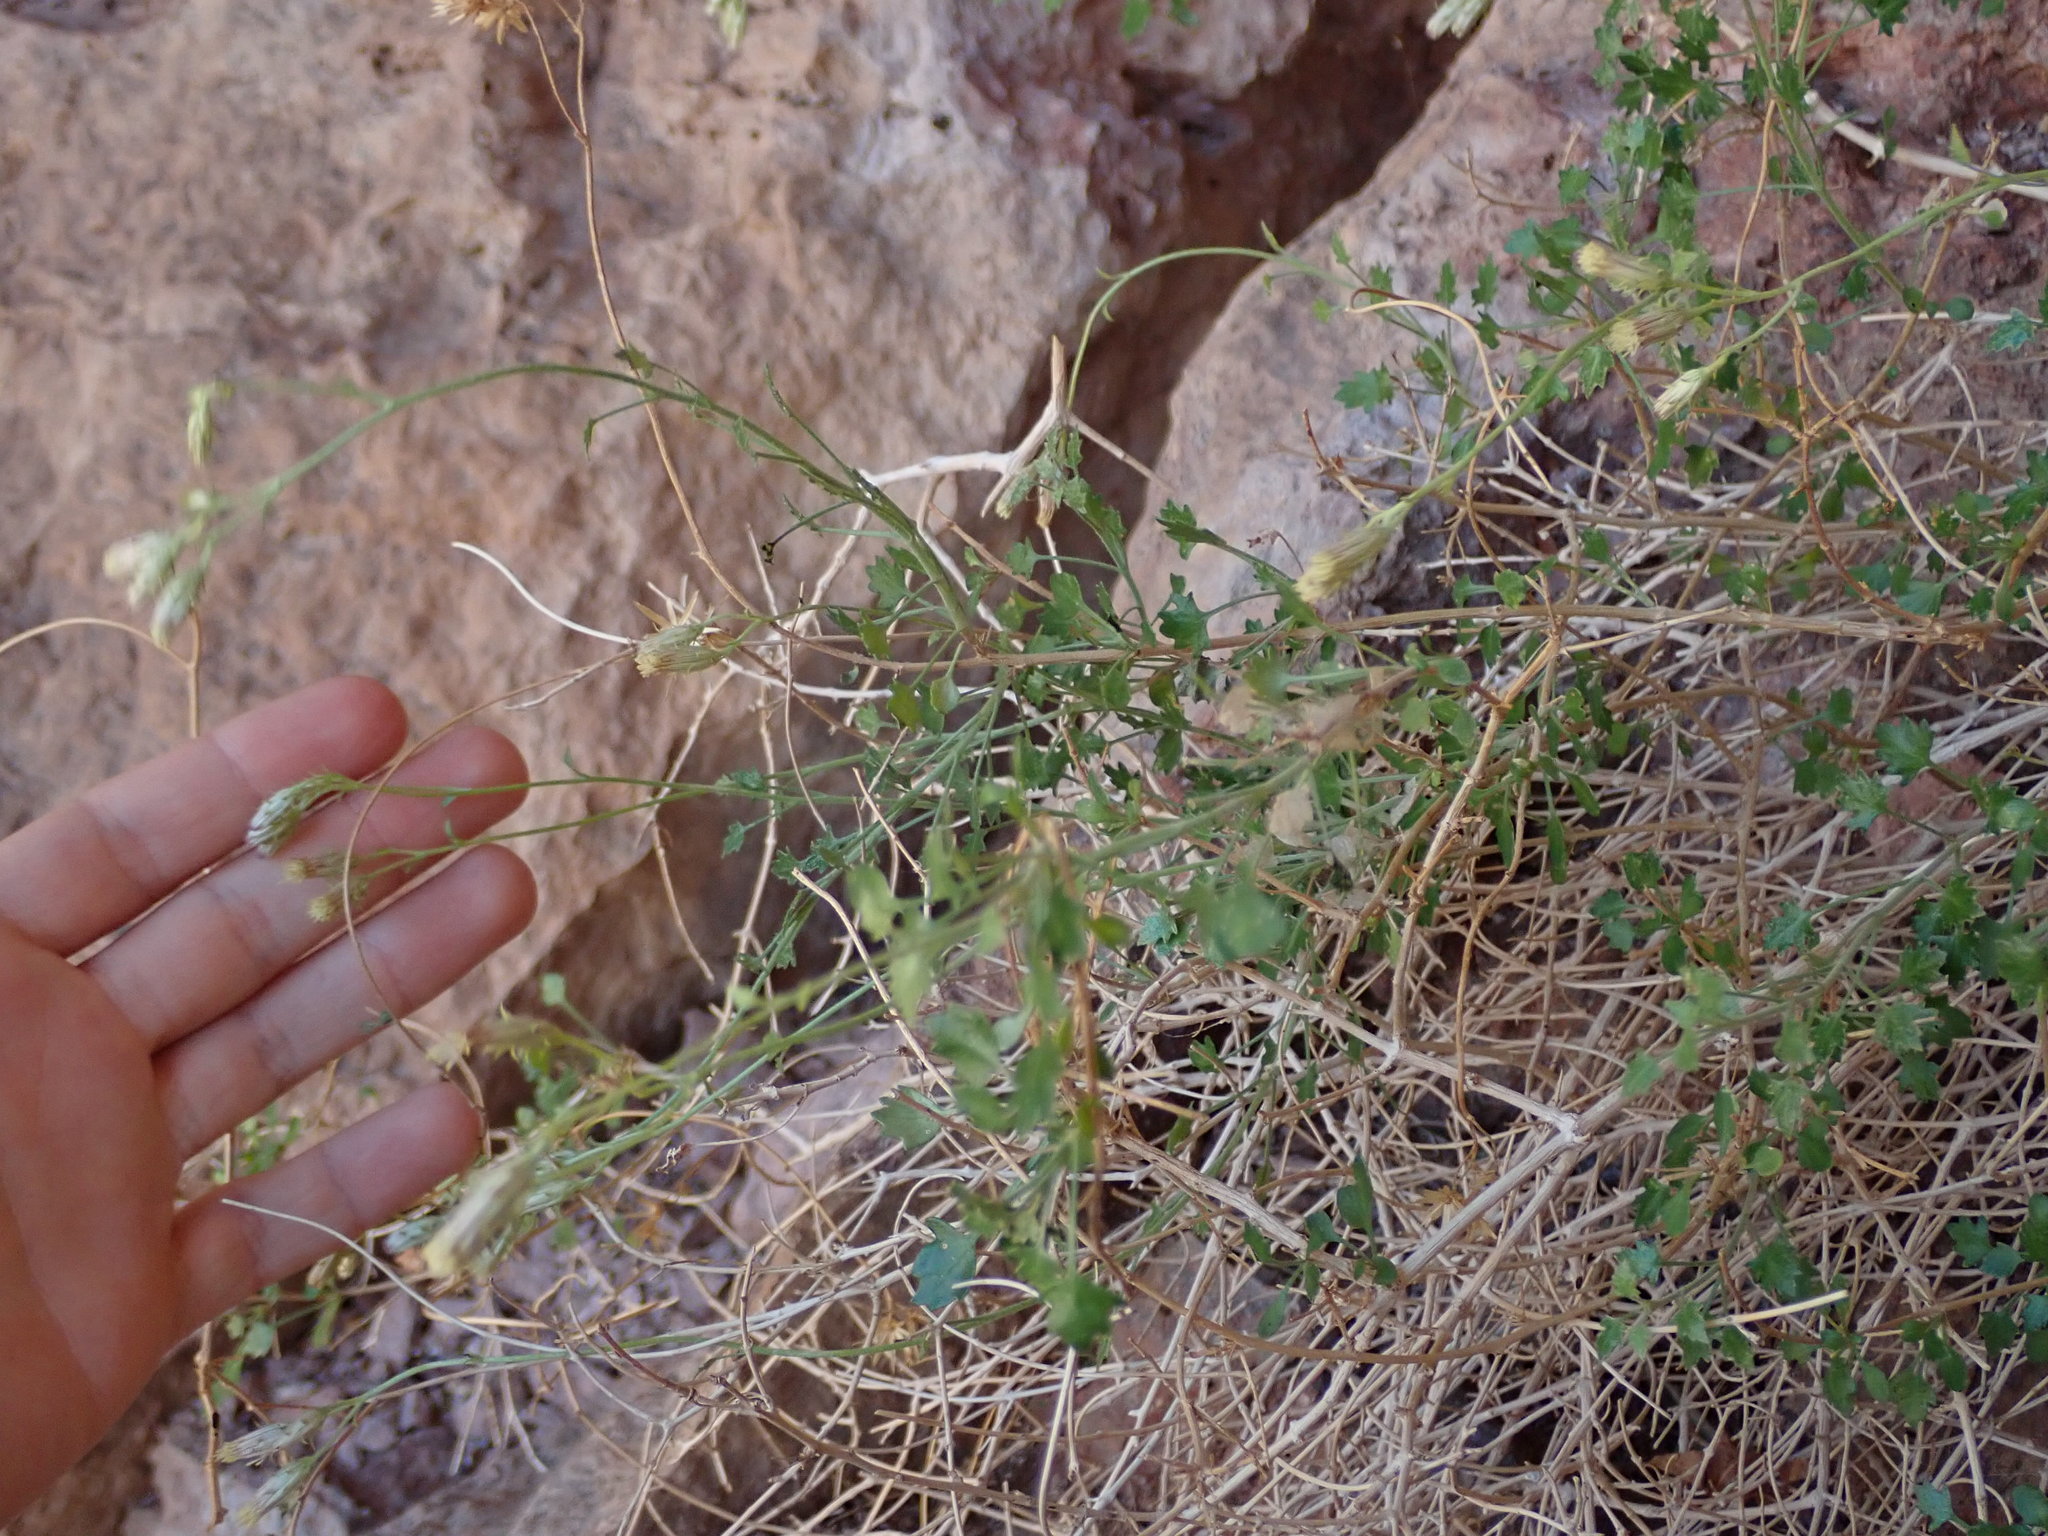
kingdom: Plantae
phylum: Tracheophyta
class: Magnoliopsida
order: Asterales
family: Asteraceae
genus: Pleurocoronis
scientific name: Pleurocoronis laphamioides
